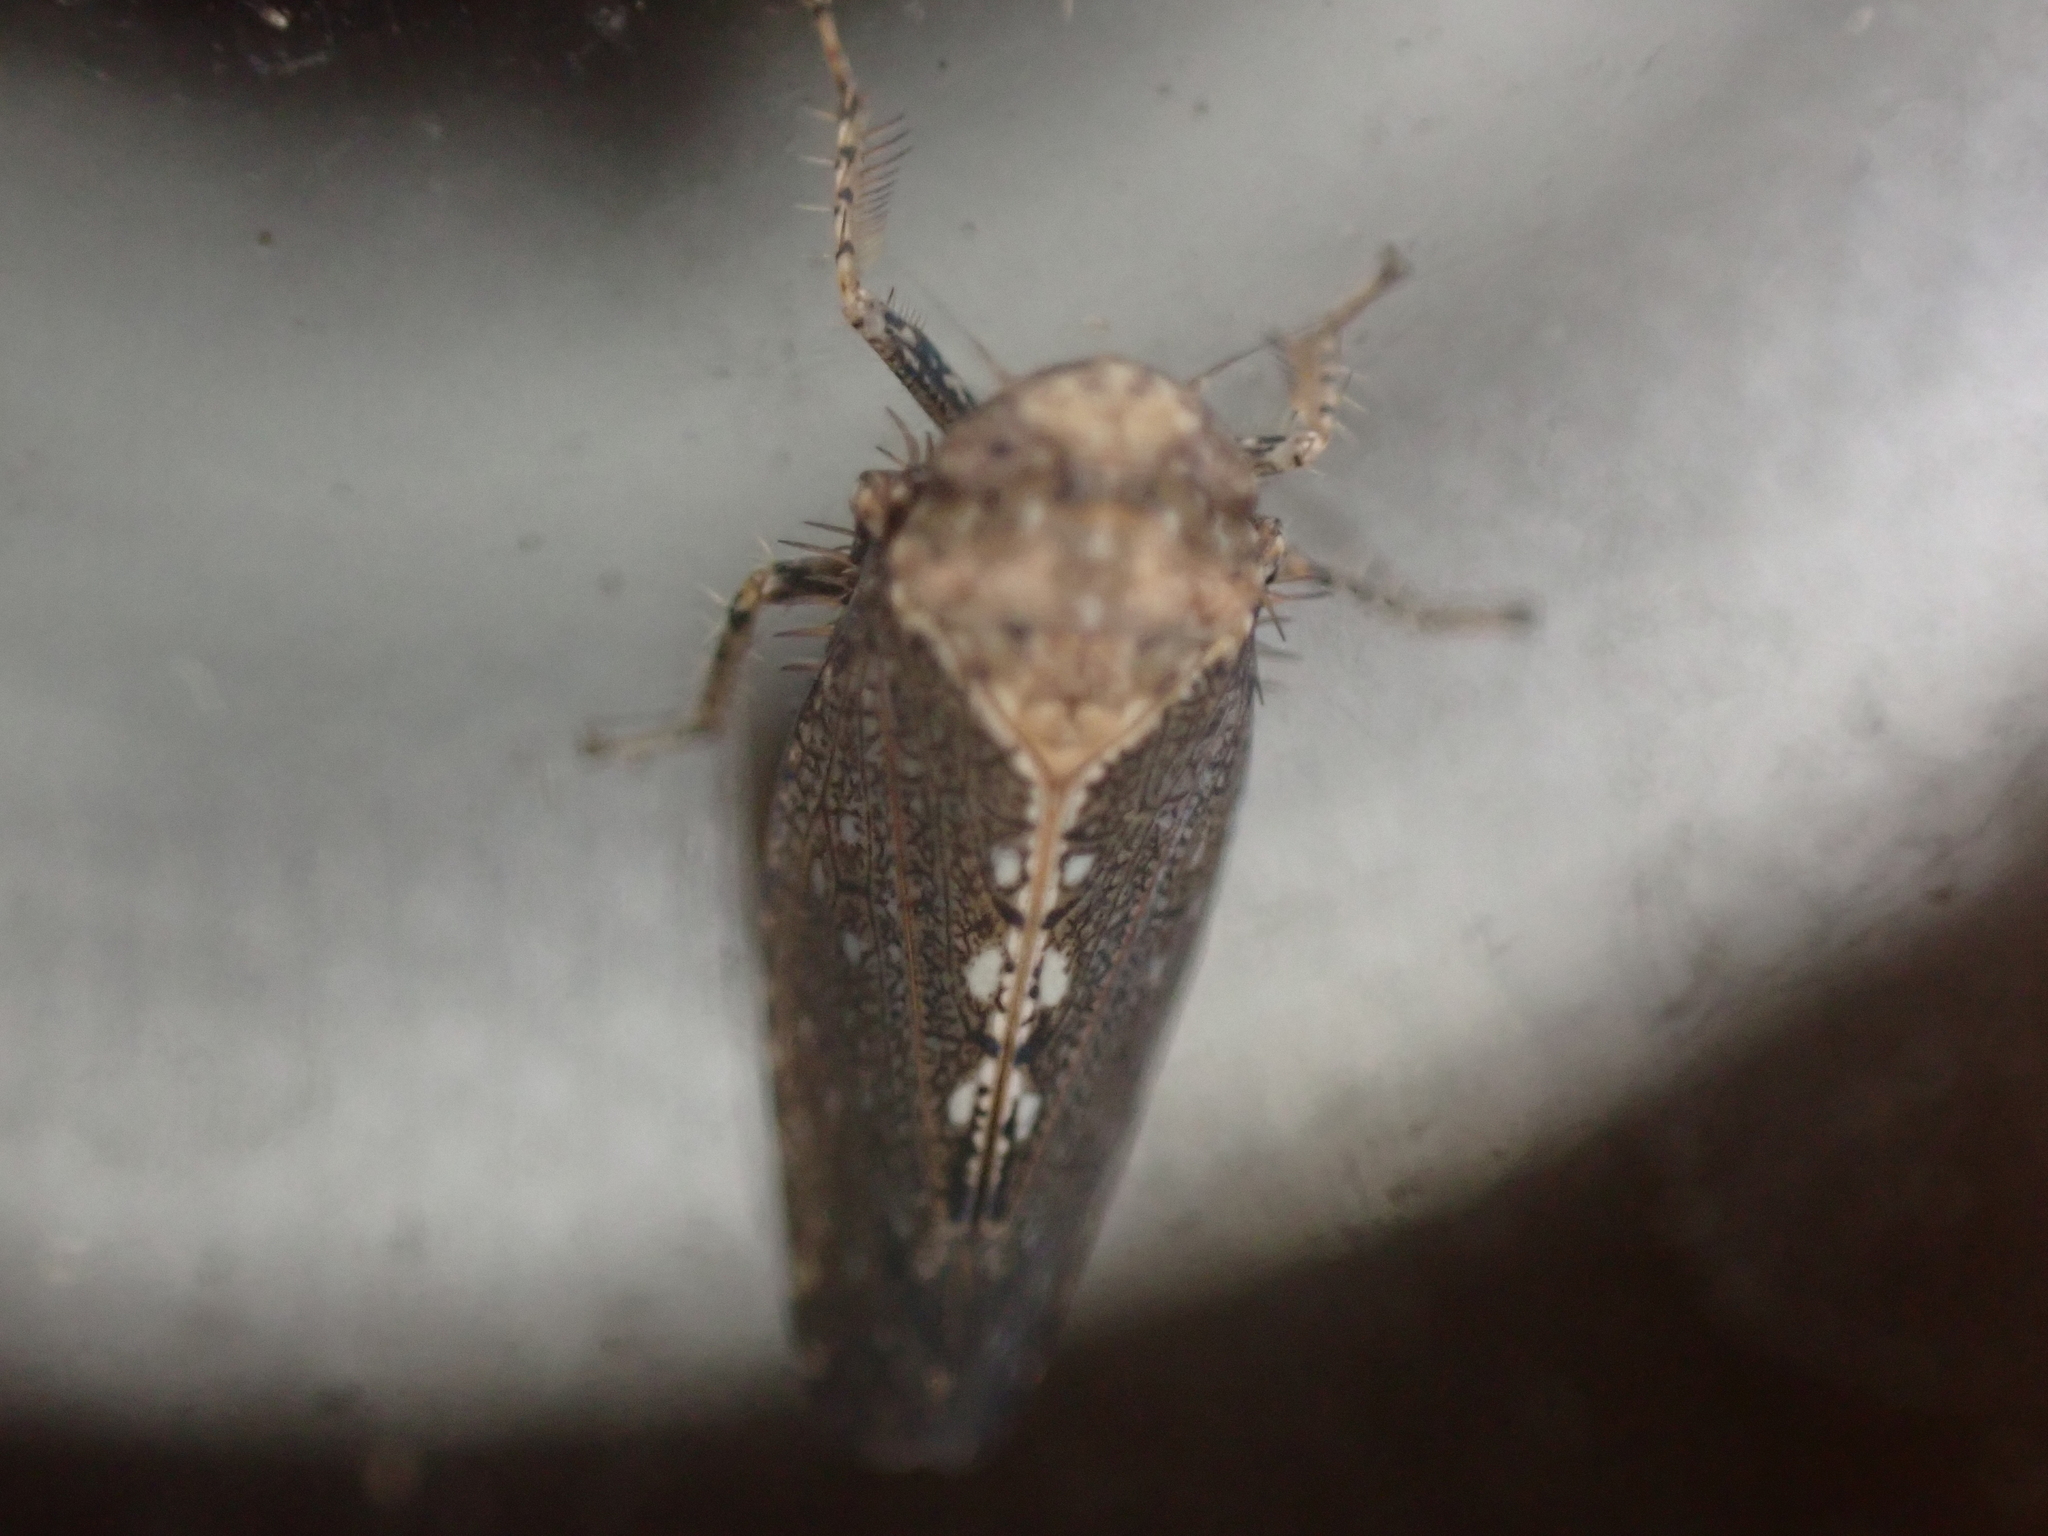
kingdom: Animalia
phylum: Arthropoda
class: Insecta
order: Hemiptera
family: Cicadellidae
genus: Excultanus
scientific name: Excultanus excultus
